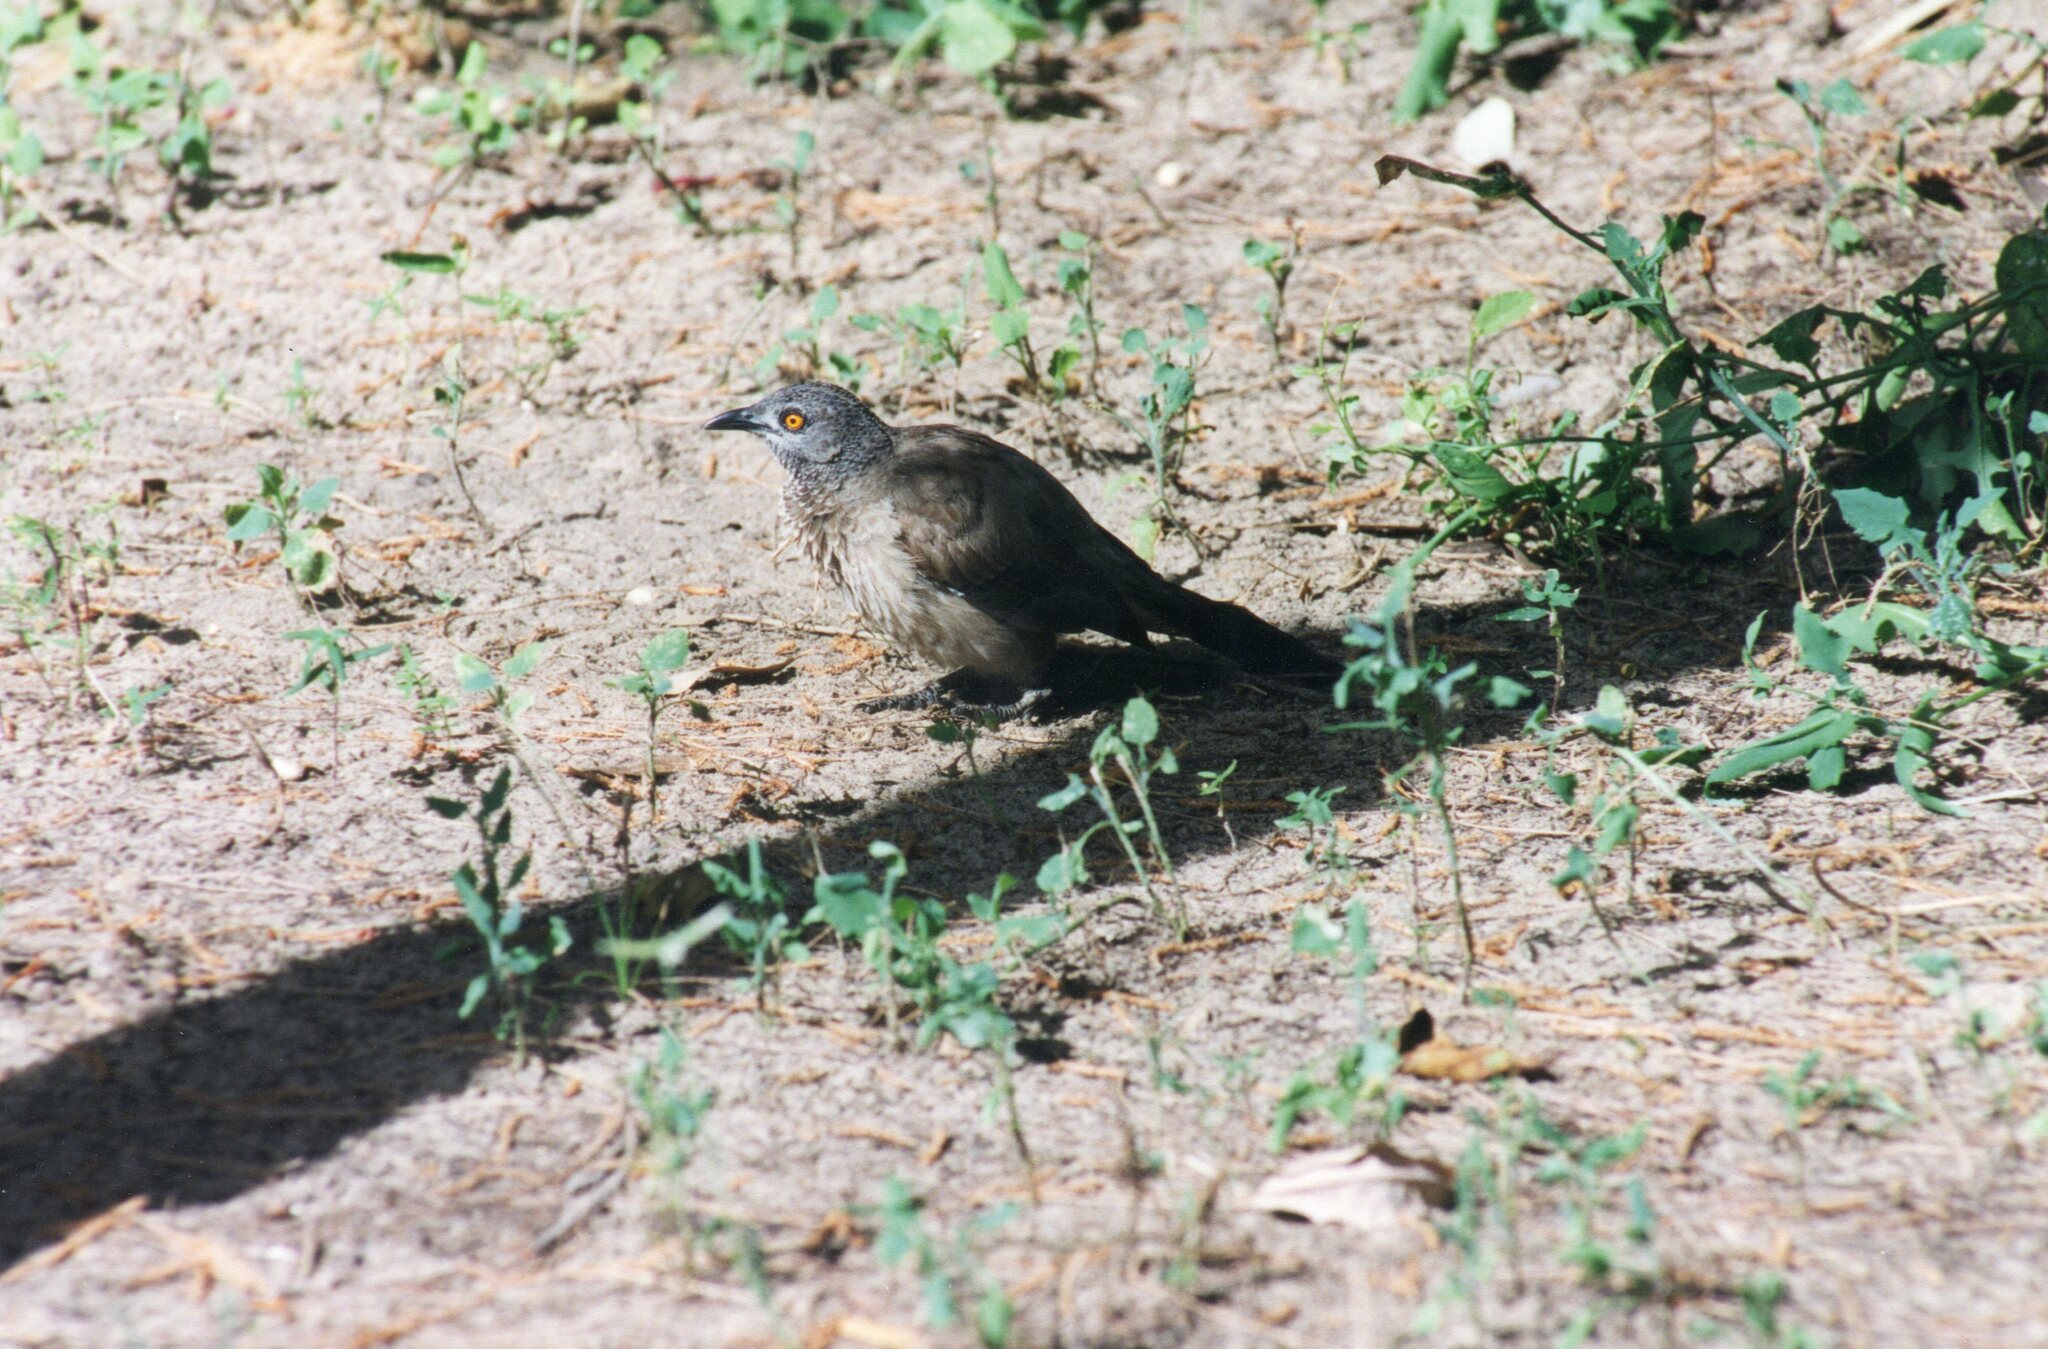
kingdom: Animalia
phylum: Chordata
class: Aves
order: Passeriformes
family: Leiothrichidae
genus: Turdoides
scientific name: Turdoides plebejus
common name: Brown babbler
